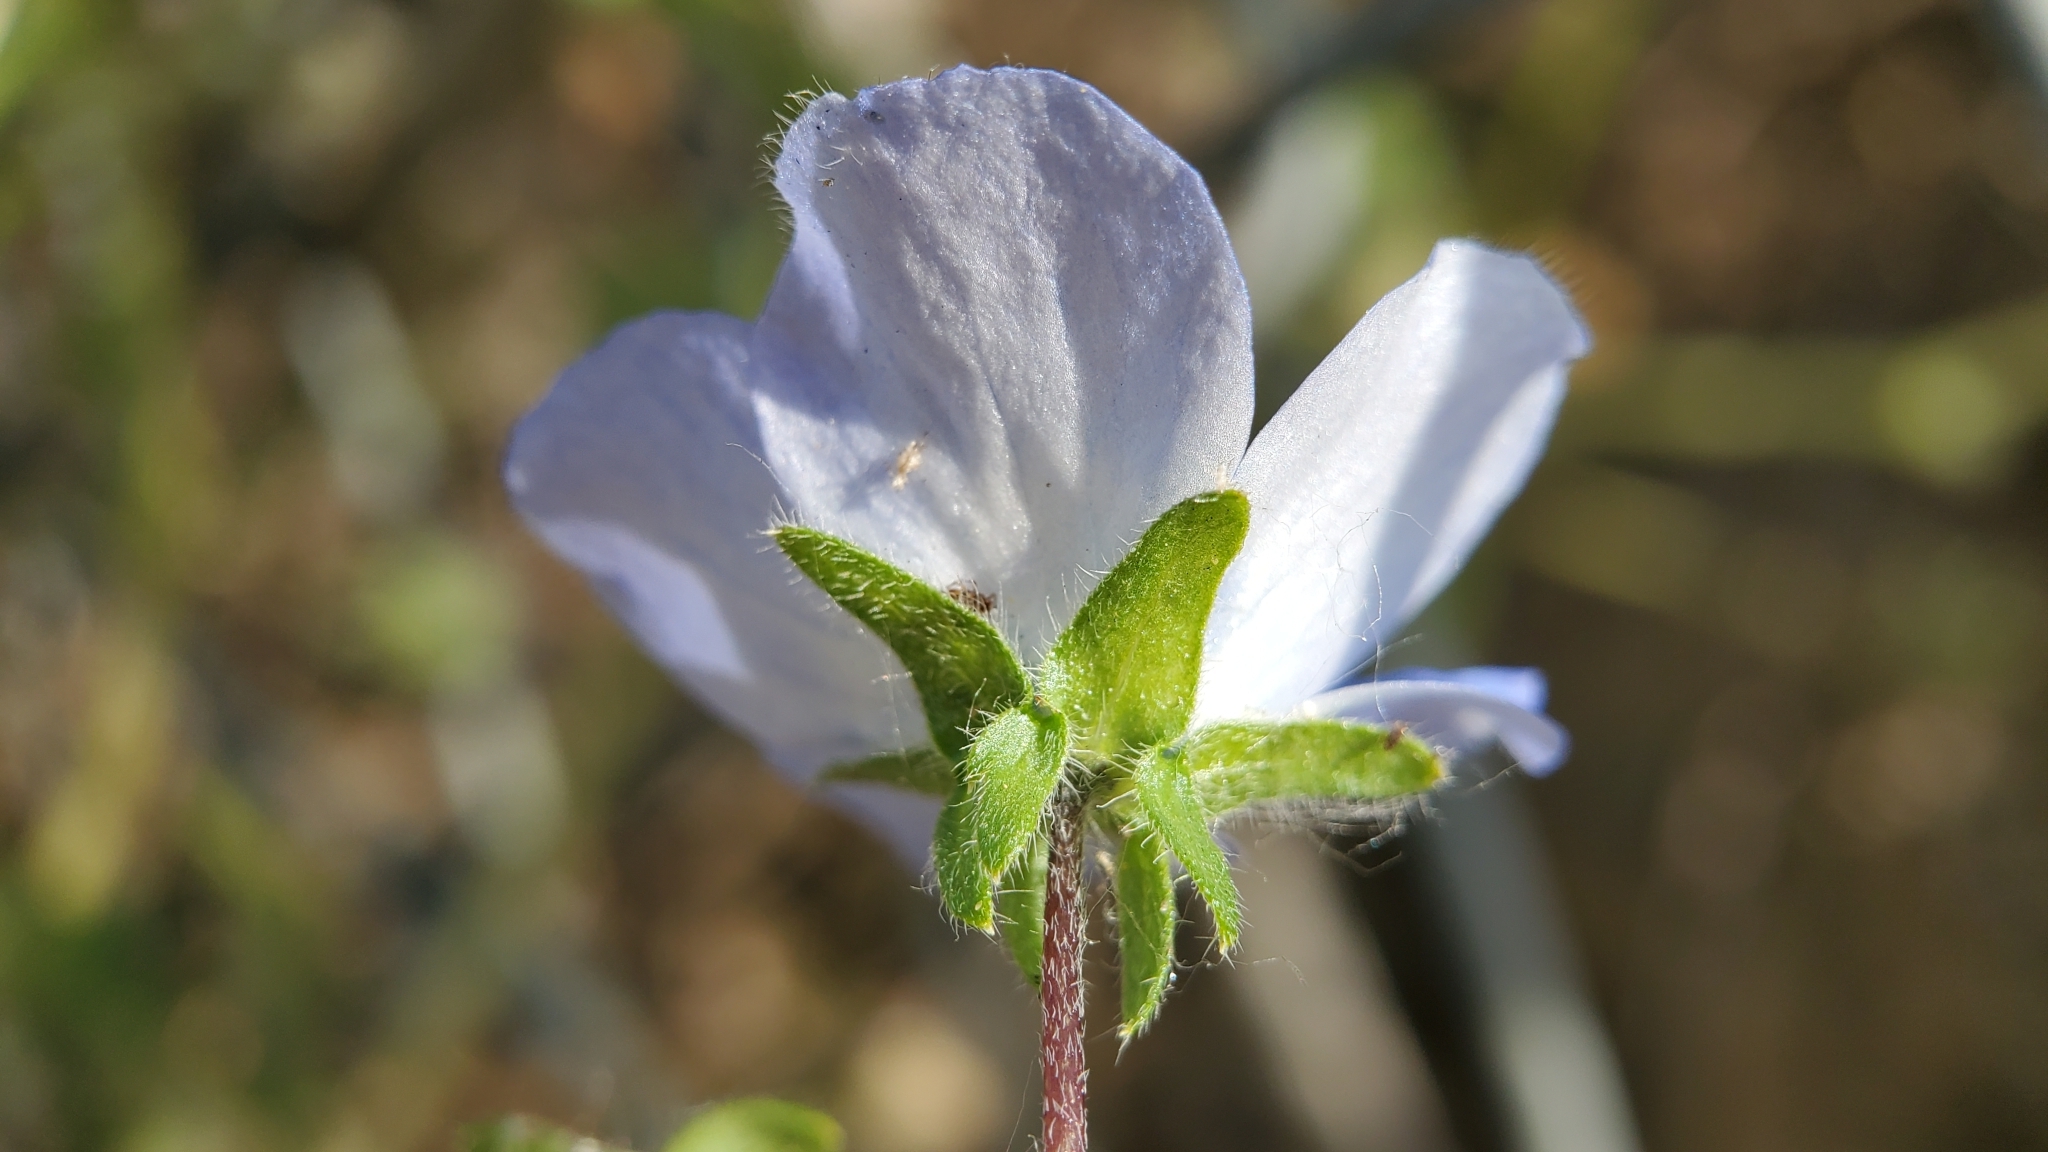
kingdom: Plantae
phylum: Tracheophyta
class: Magnoliopsida
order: Boraginales
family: Hydrophyllaceae
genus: Nemophila
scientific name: Nemophila menziesii
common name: Baby's-blue-eyes
